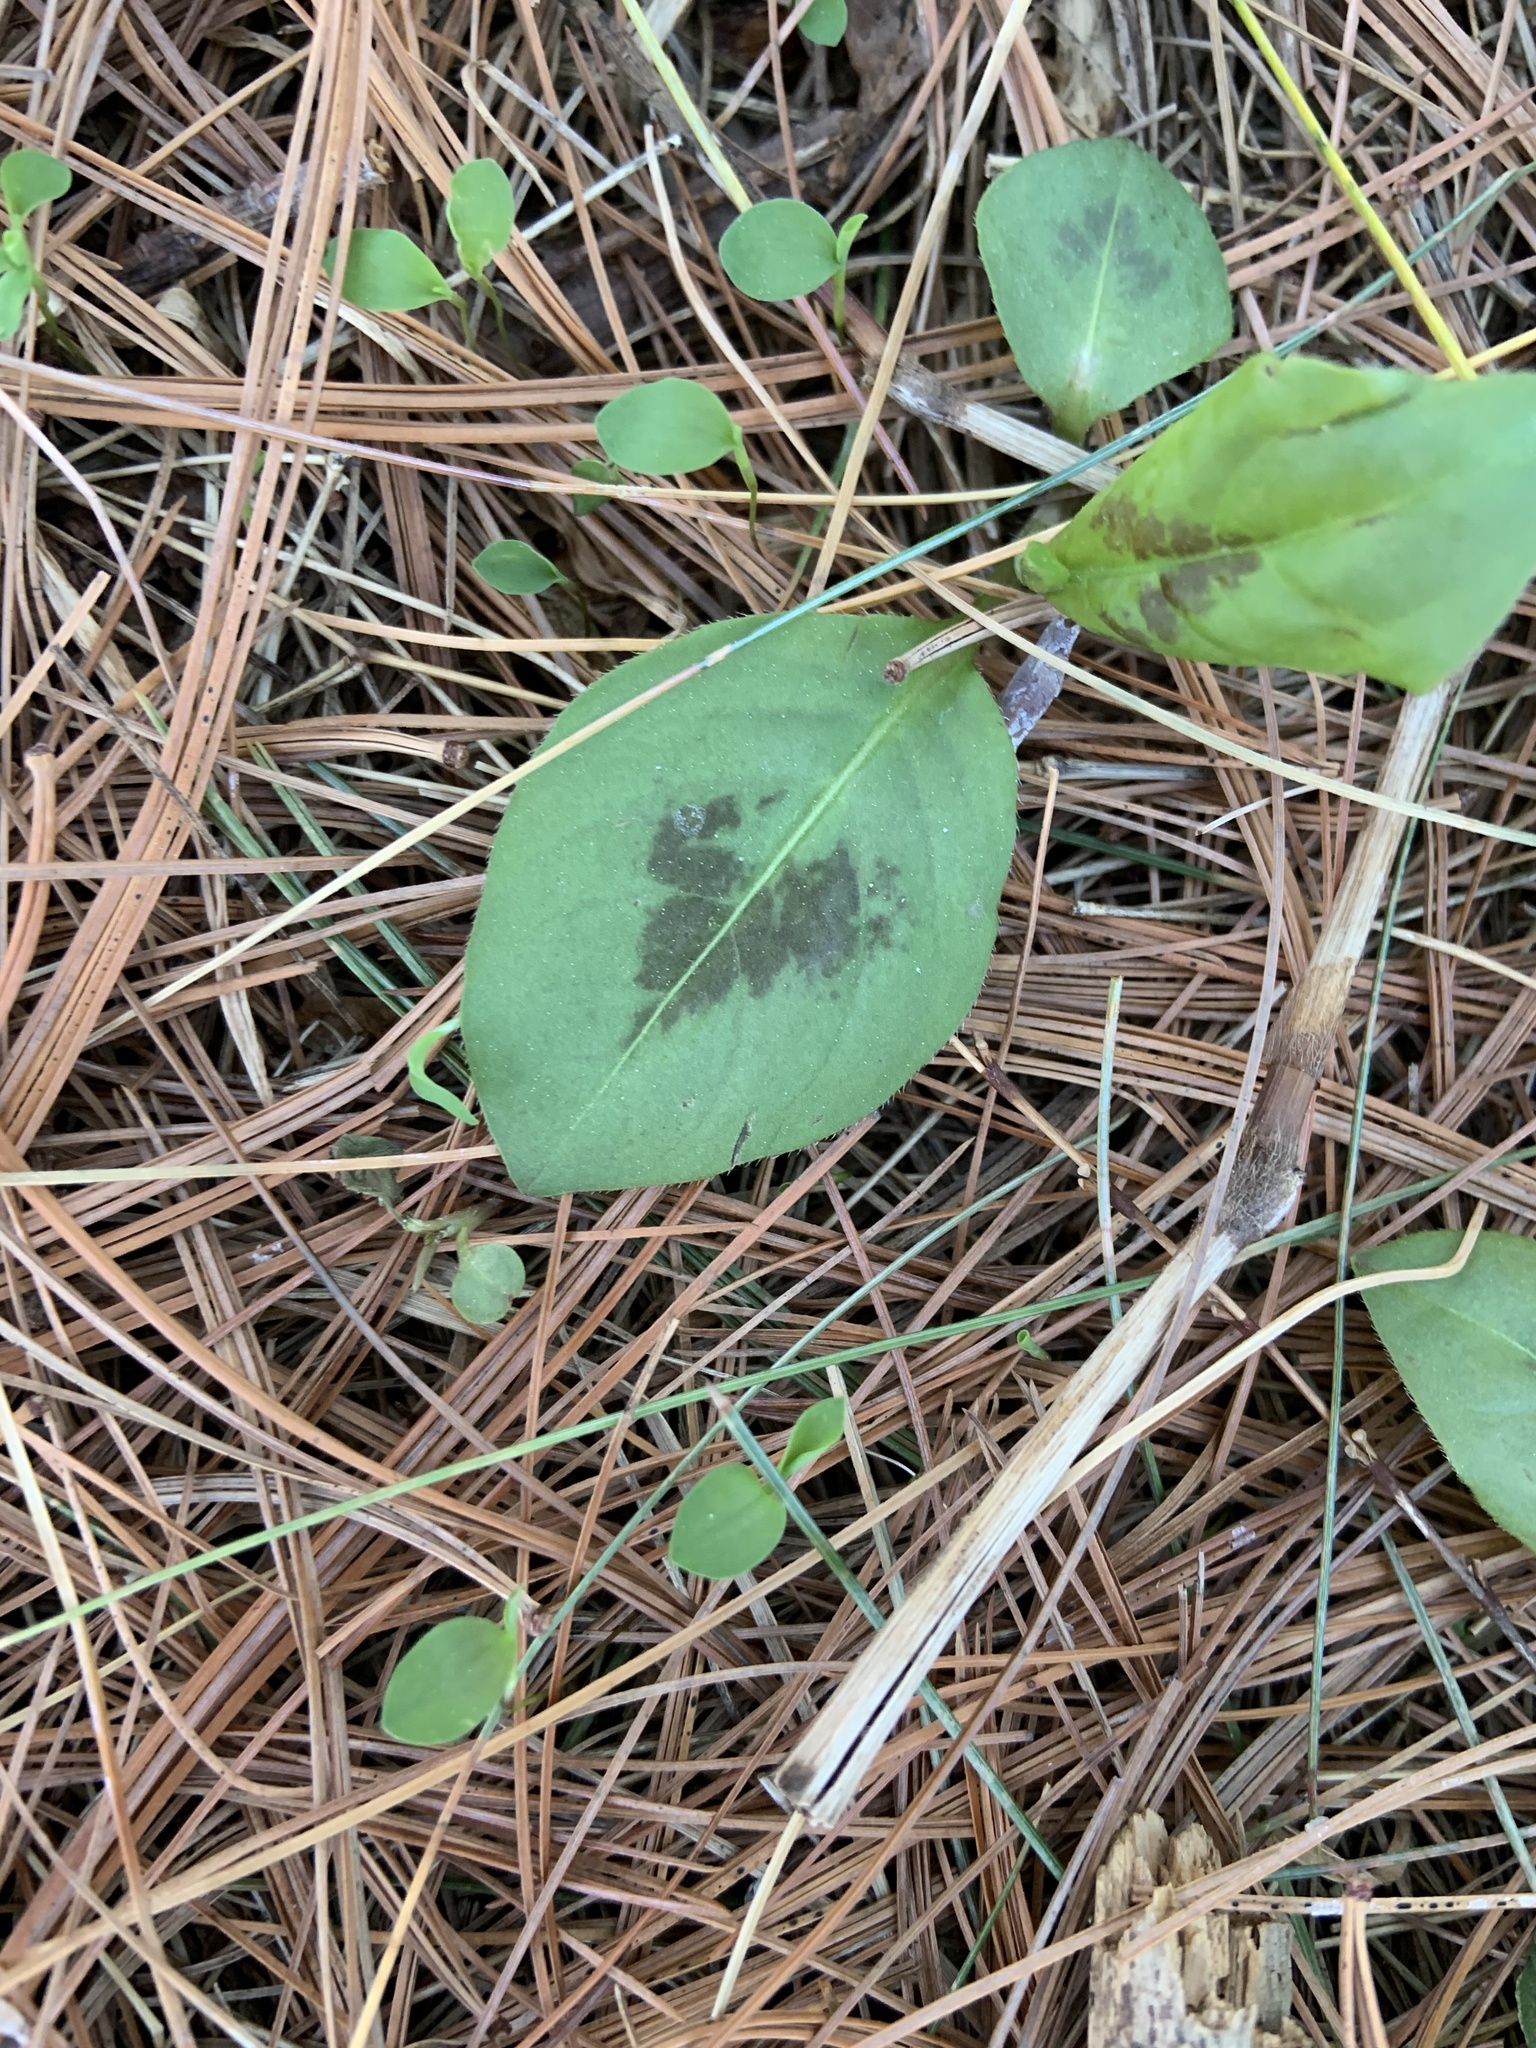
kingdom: Plantae
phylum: Tracheophyta
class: Magnoliopsida
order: Caryophyllales
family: Polygonaceae
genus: Persicaria
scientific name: Persicaria virginiana
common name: Jumpseed
